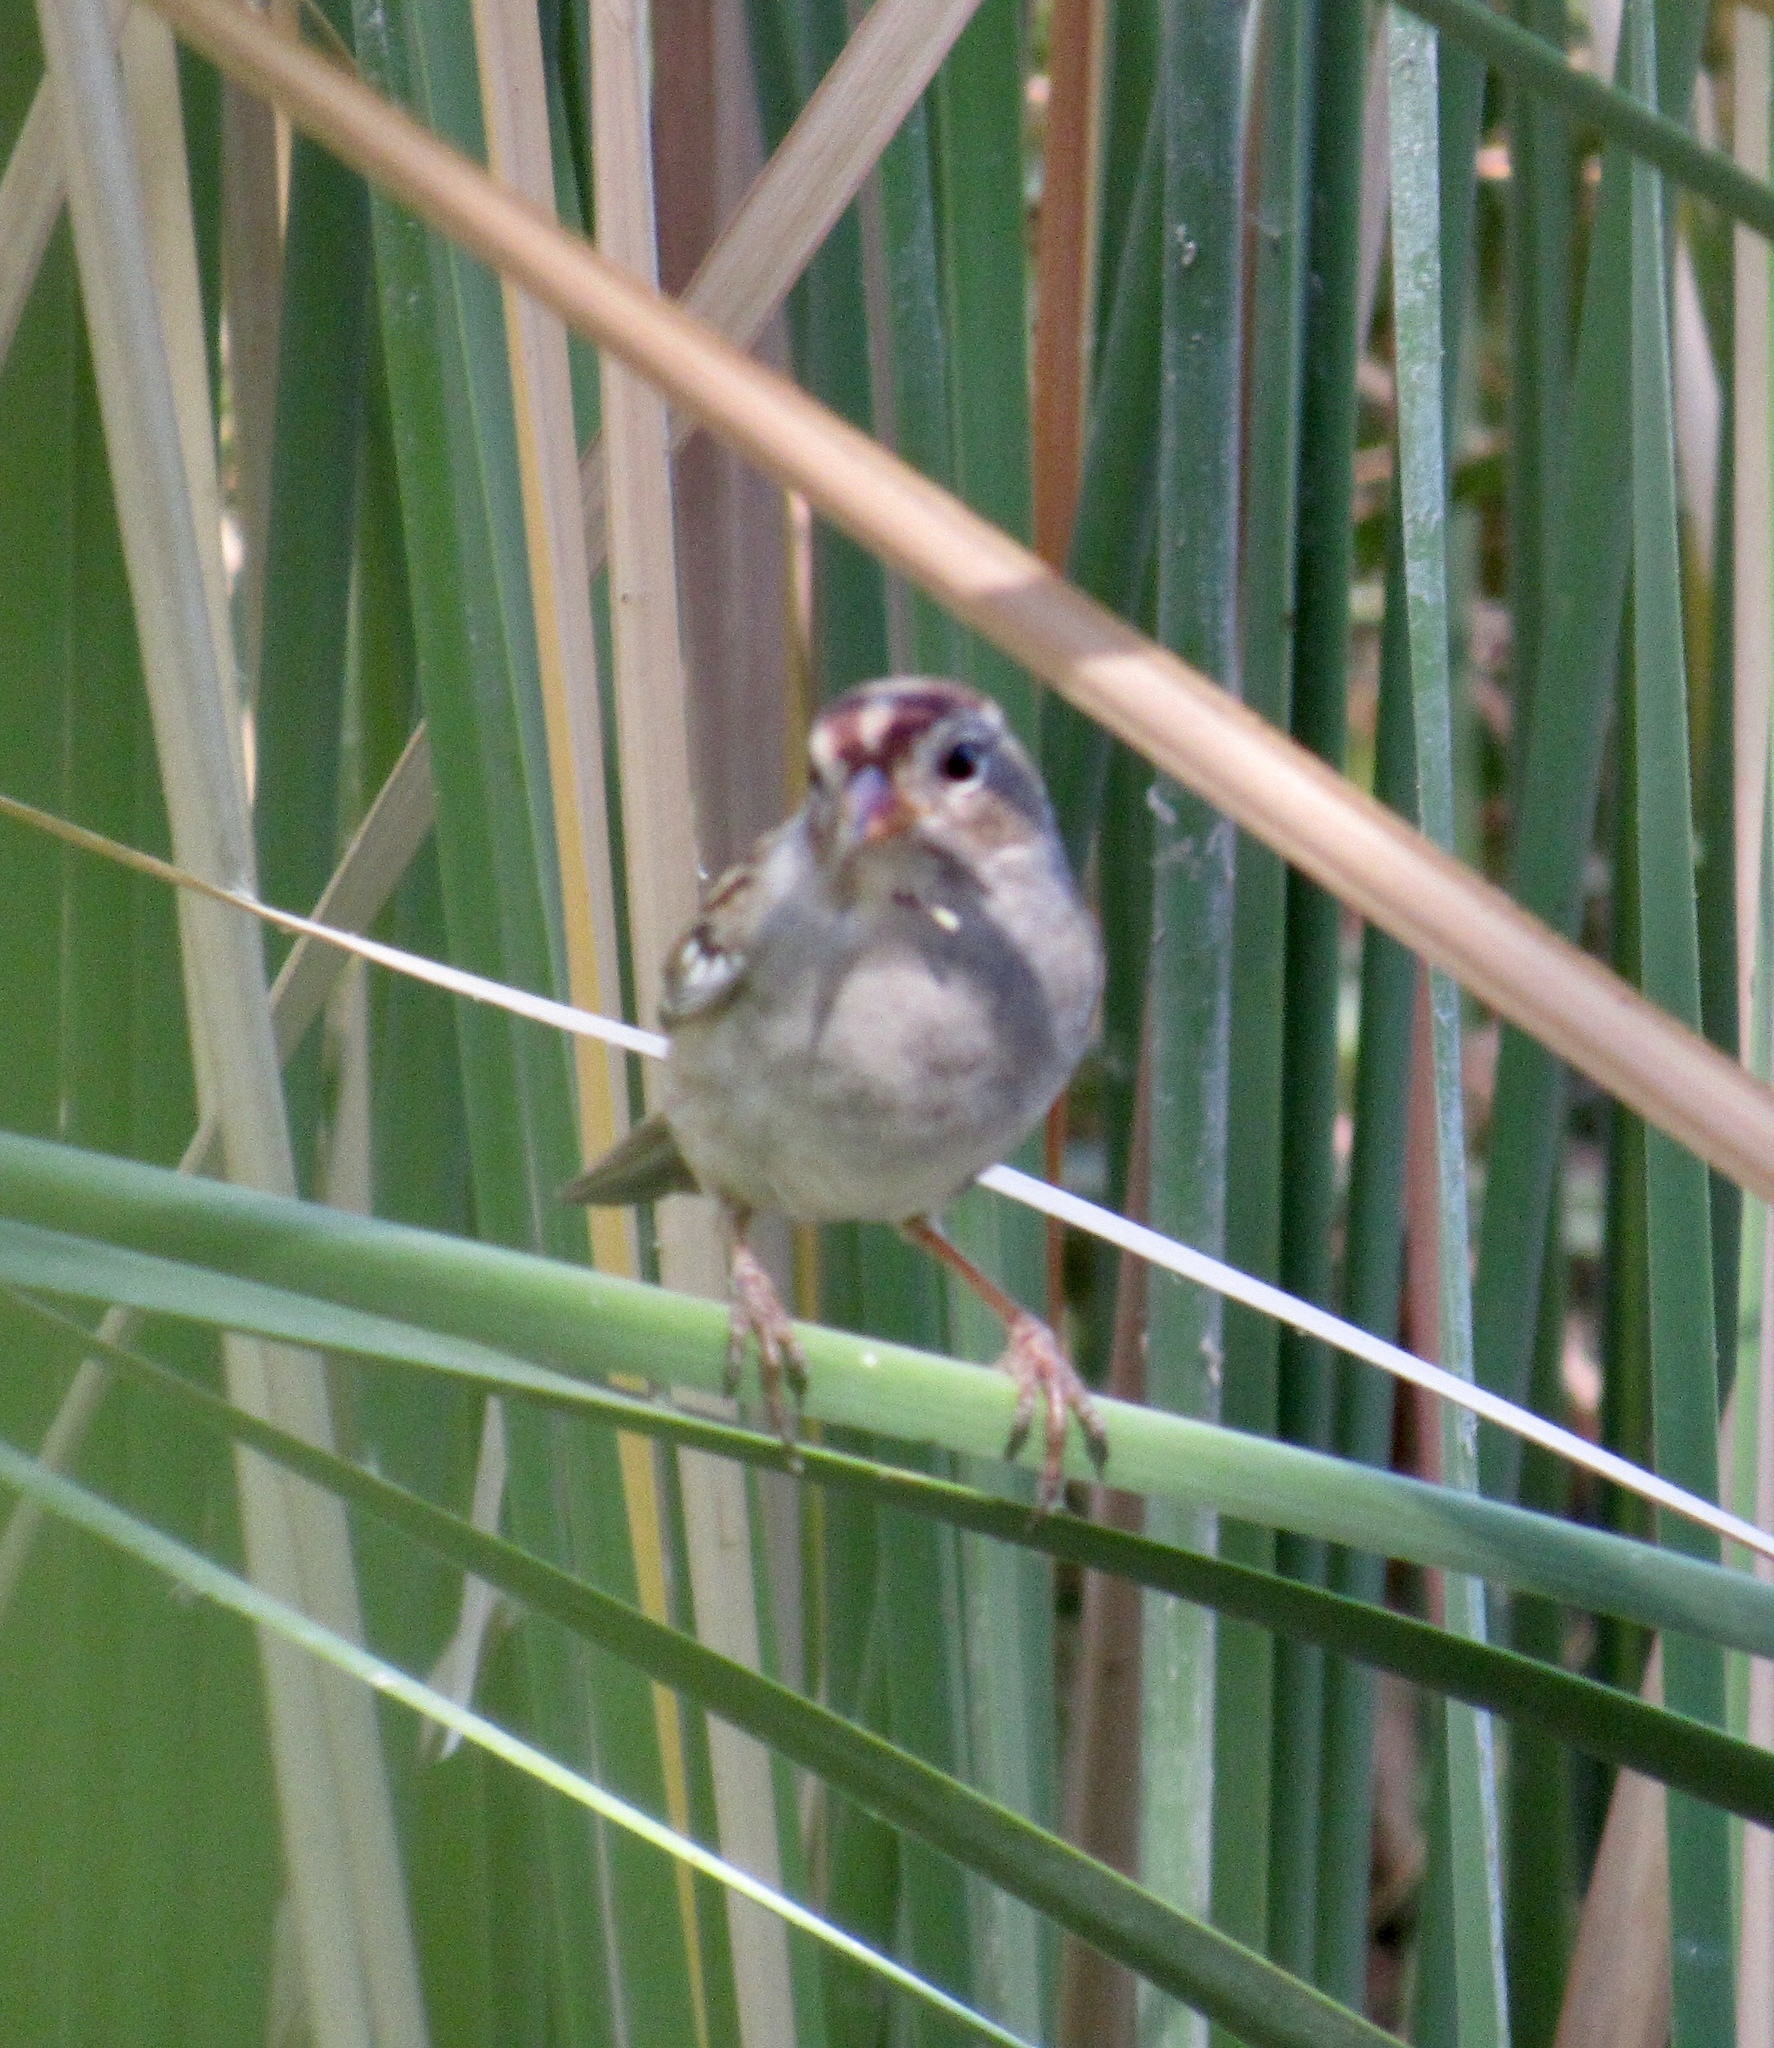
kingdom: Animalia
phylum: Chordata
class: Aves
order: Passeriformes
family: Passerellidae
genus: Zonotrichia
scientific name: Zonotrichia leucophrys
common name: White-crowned sparrow
